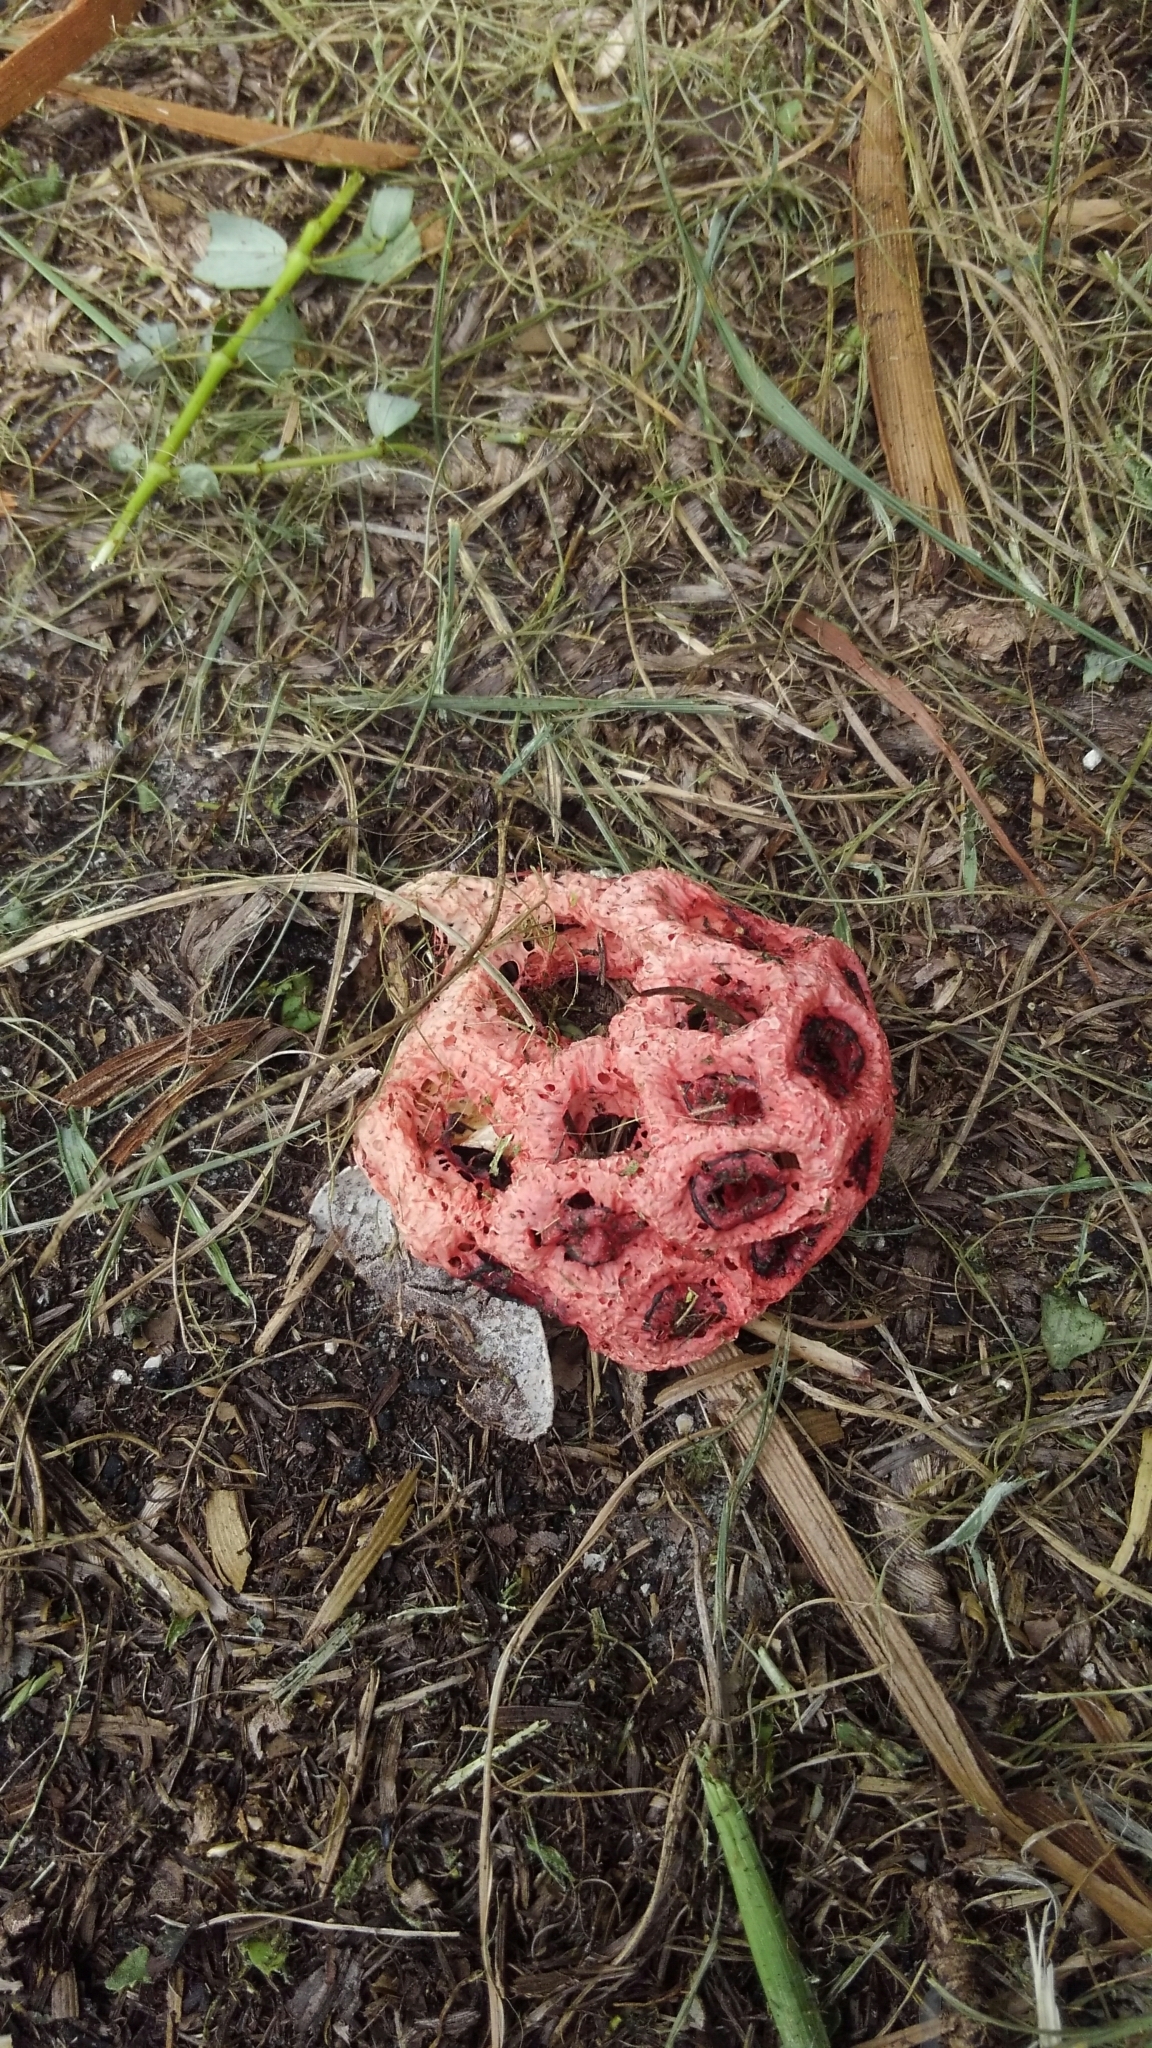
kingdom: Fungi
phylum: Basidiomycota
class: Agaricomycetes
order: Phallales
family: Phallaceae
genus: Clathrus
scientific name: Clathrus crispatus
